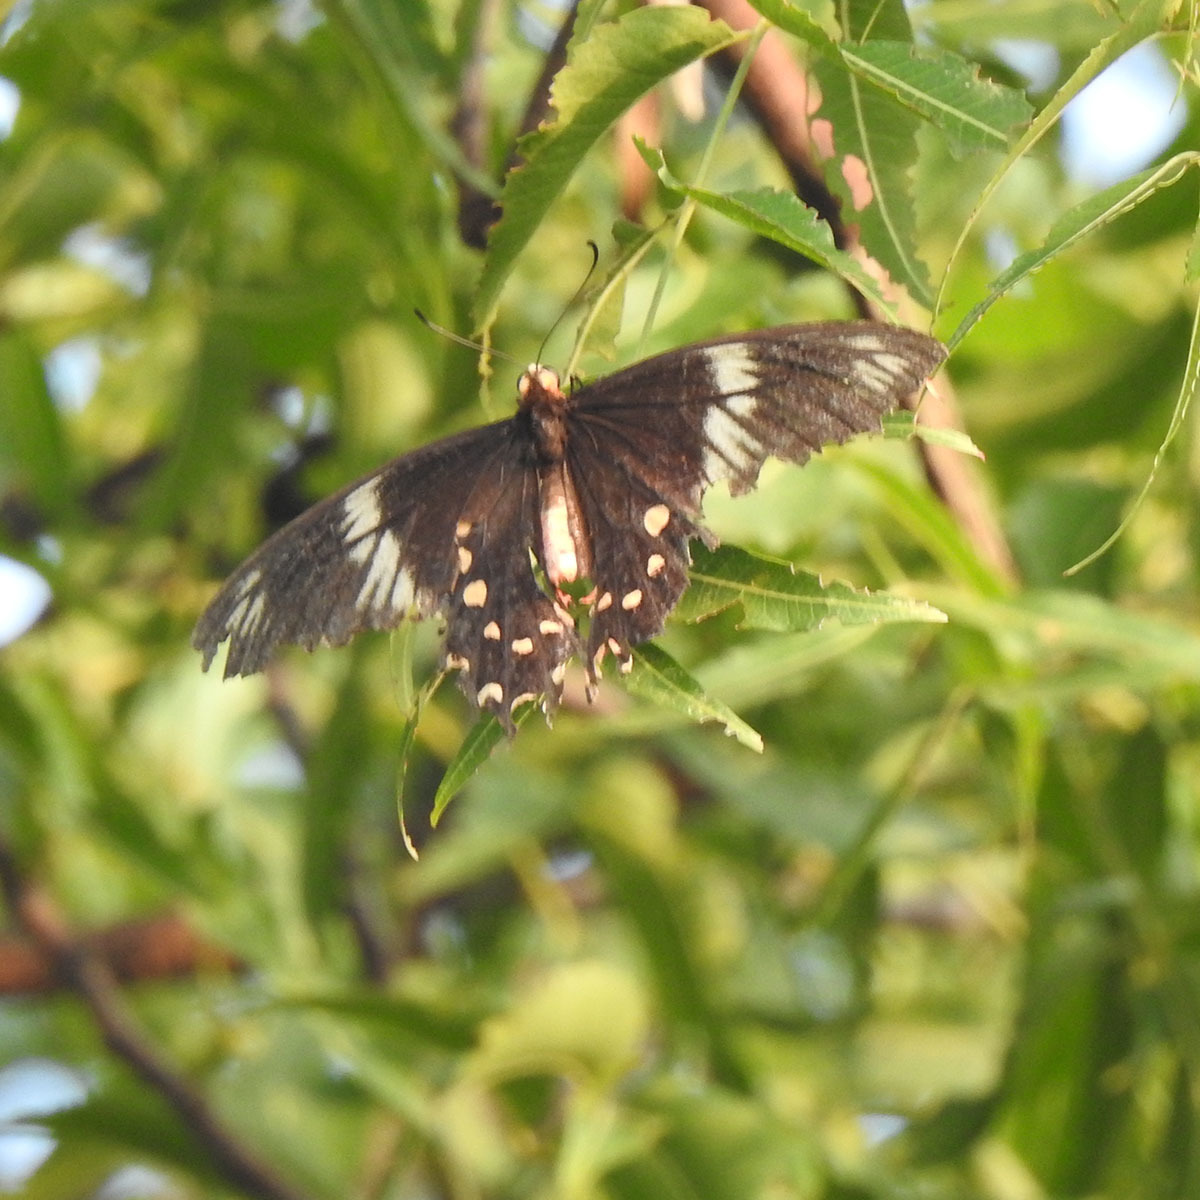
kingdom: Animalia
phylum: Arthropoda
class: Insecta
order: Lepidoptera
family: Papilionidae
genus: Pachliopta
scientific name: Pachliopta hector
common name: Crimson rose
